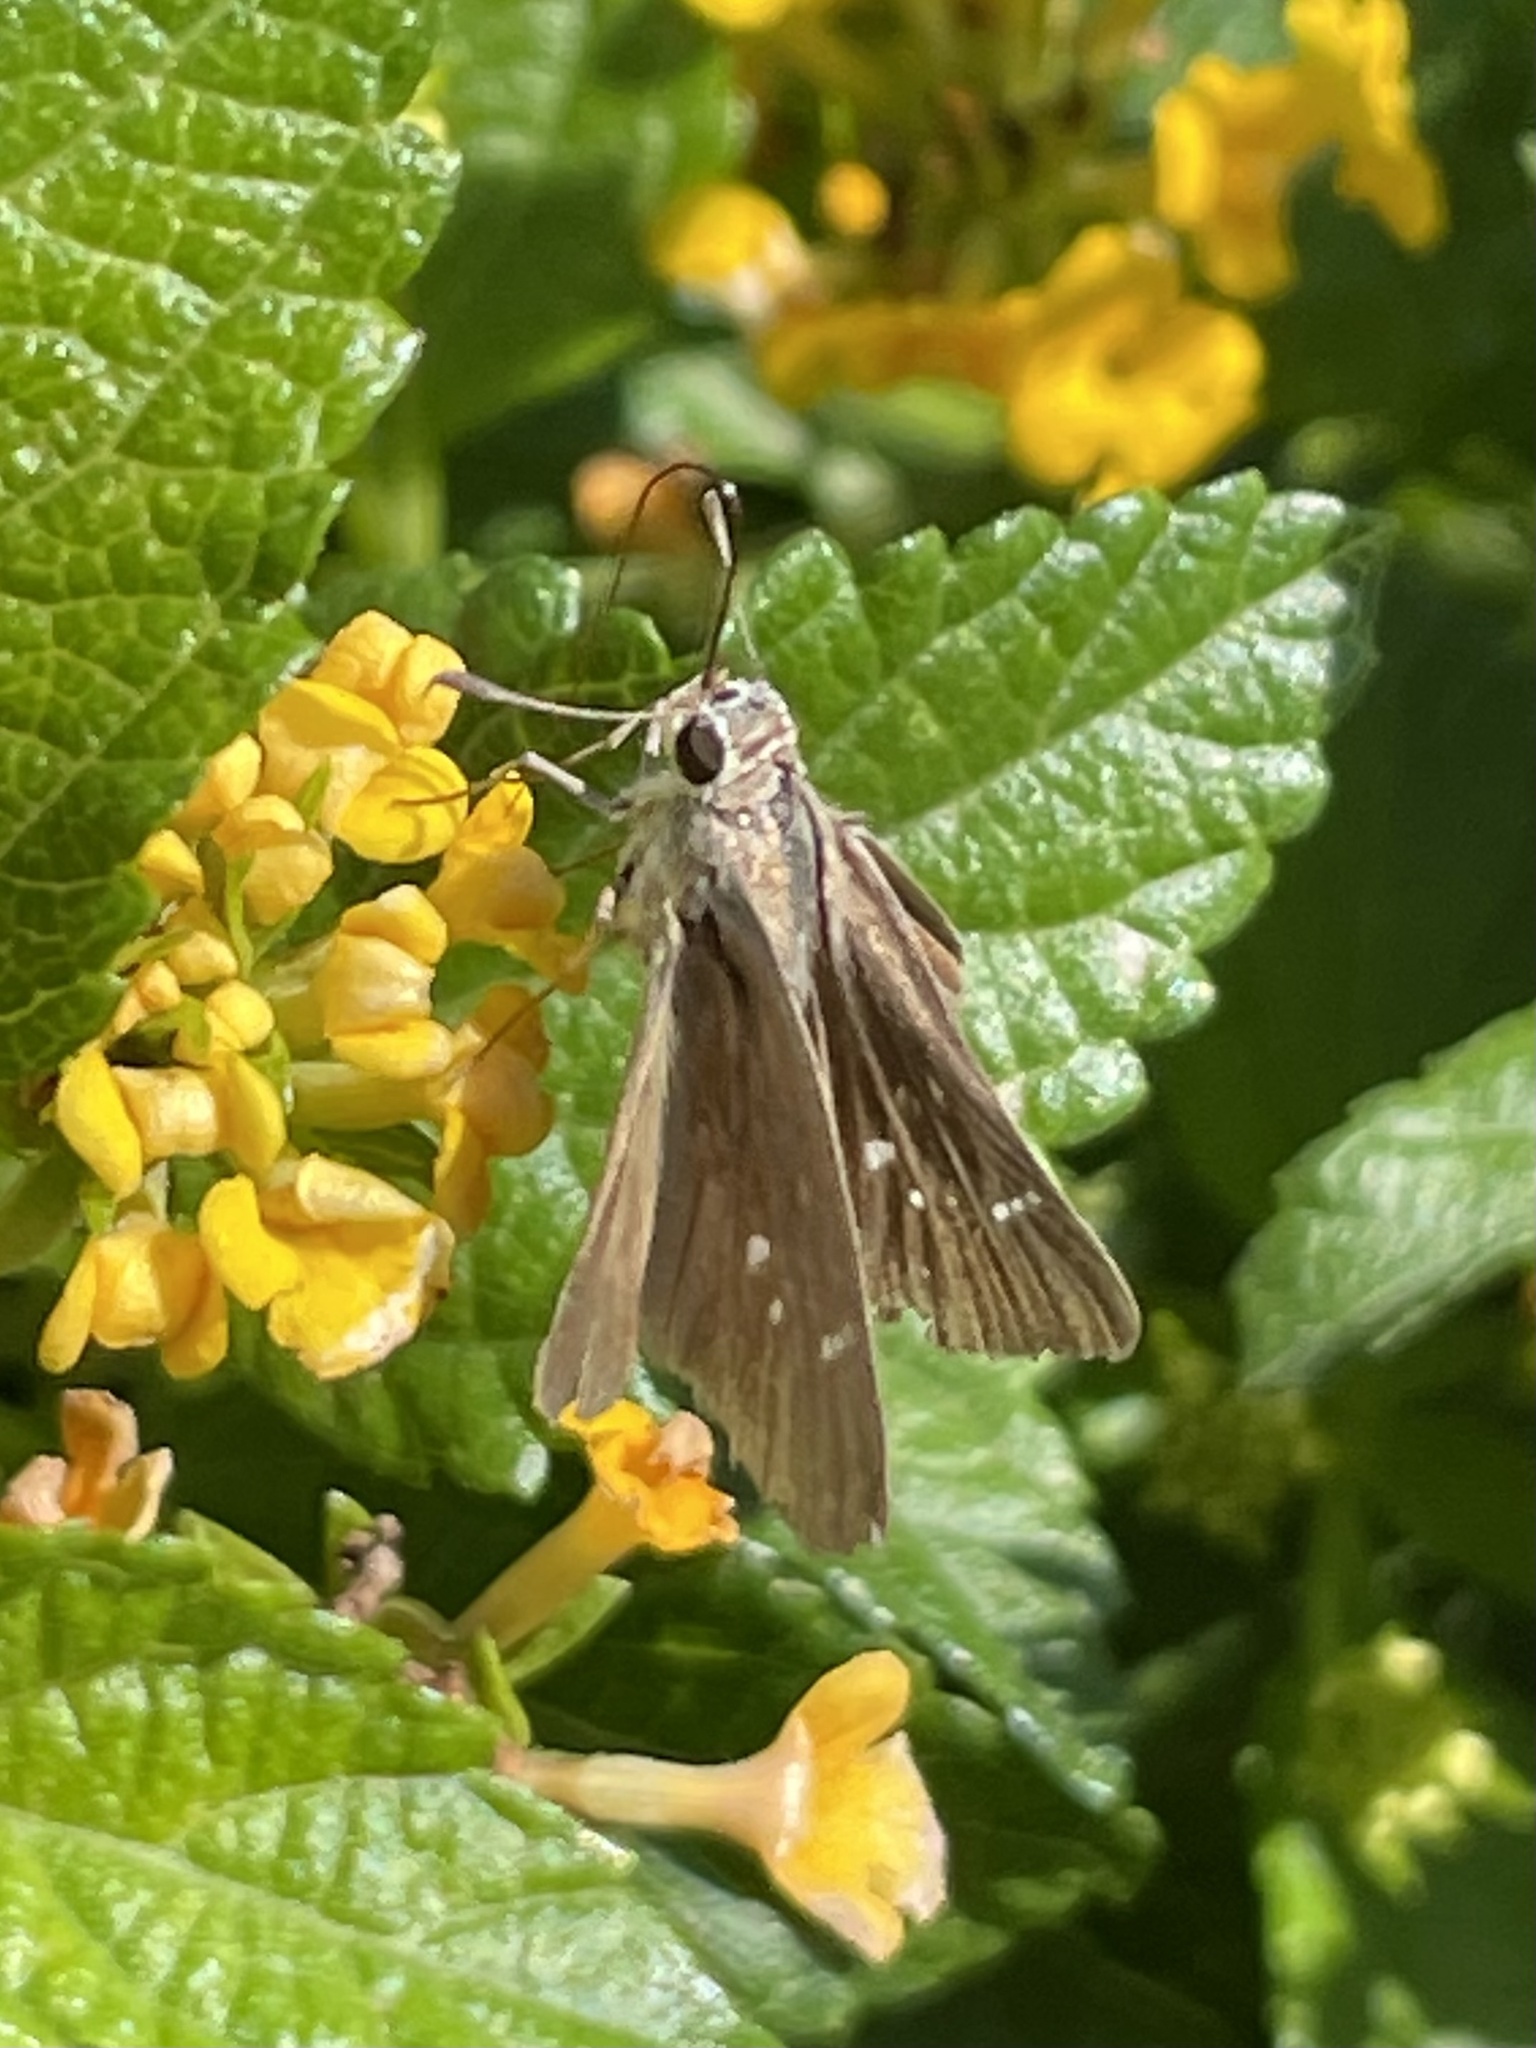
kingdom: Animalia
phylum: Arthropoda
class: Insecta
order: Lepidoptera
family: Hesperiidae
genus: Lerodea
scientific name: Lerodea eufala
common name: Eufala skipper
